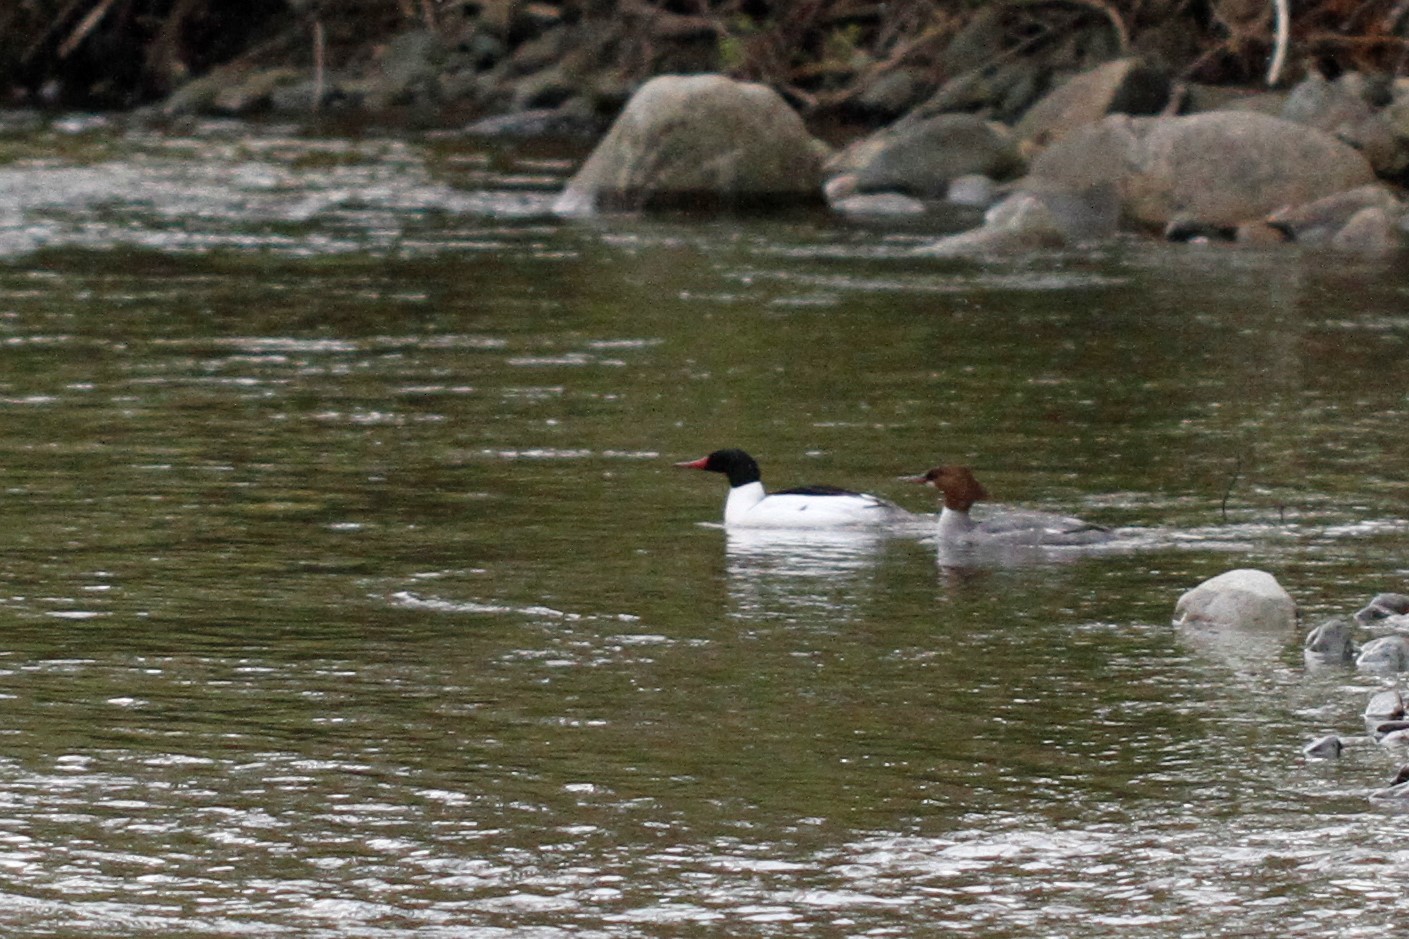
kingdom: Animalia
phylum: Chordata
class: Aves
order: Anseriformes
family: Anatidae
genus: Mergus
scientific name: Mergus merganser
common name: Common merganser
